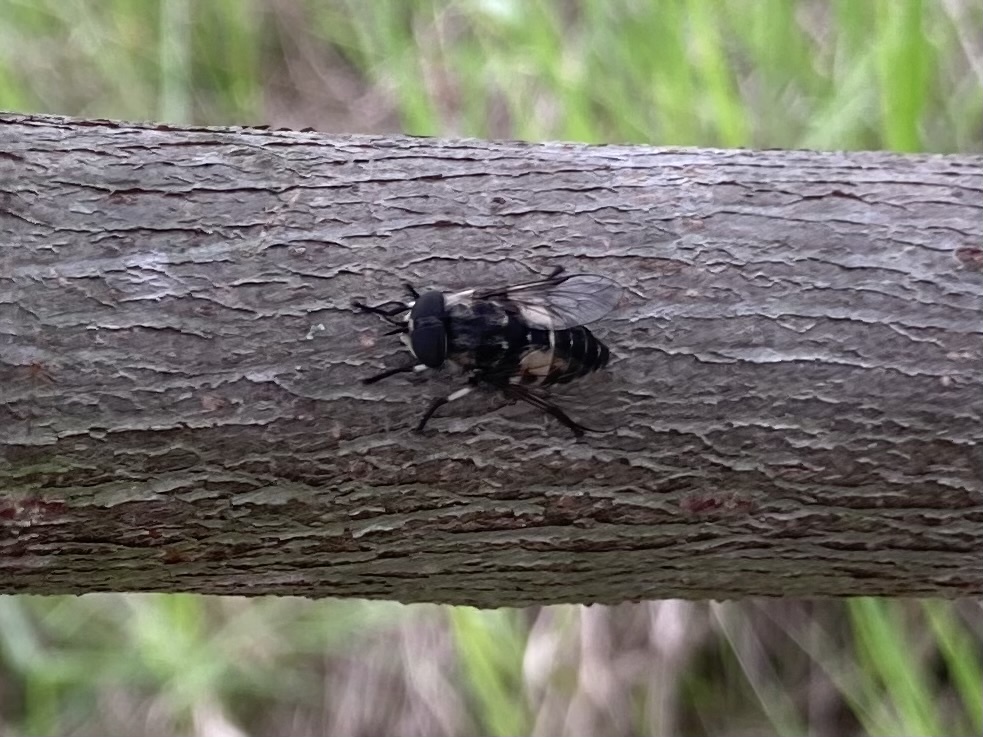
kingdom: Animalia
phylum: Arthropoda
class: Insecta
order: Diptera
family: Tabanidae
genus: Tabanus
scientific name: Tabanus variabilis
